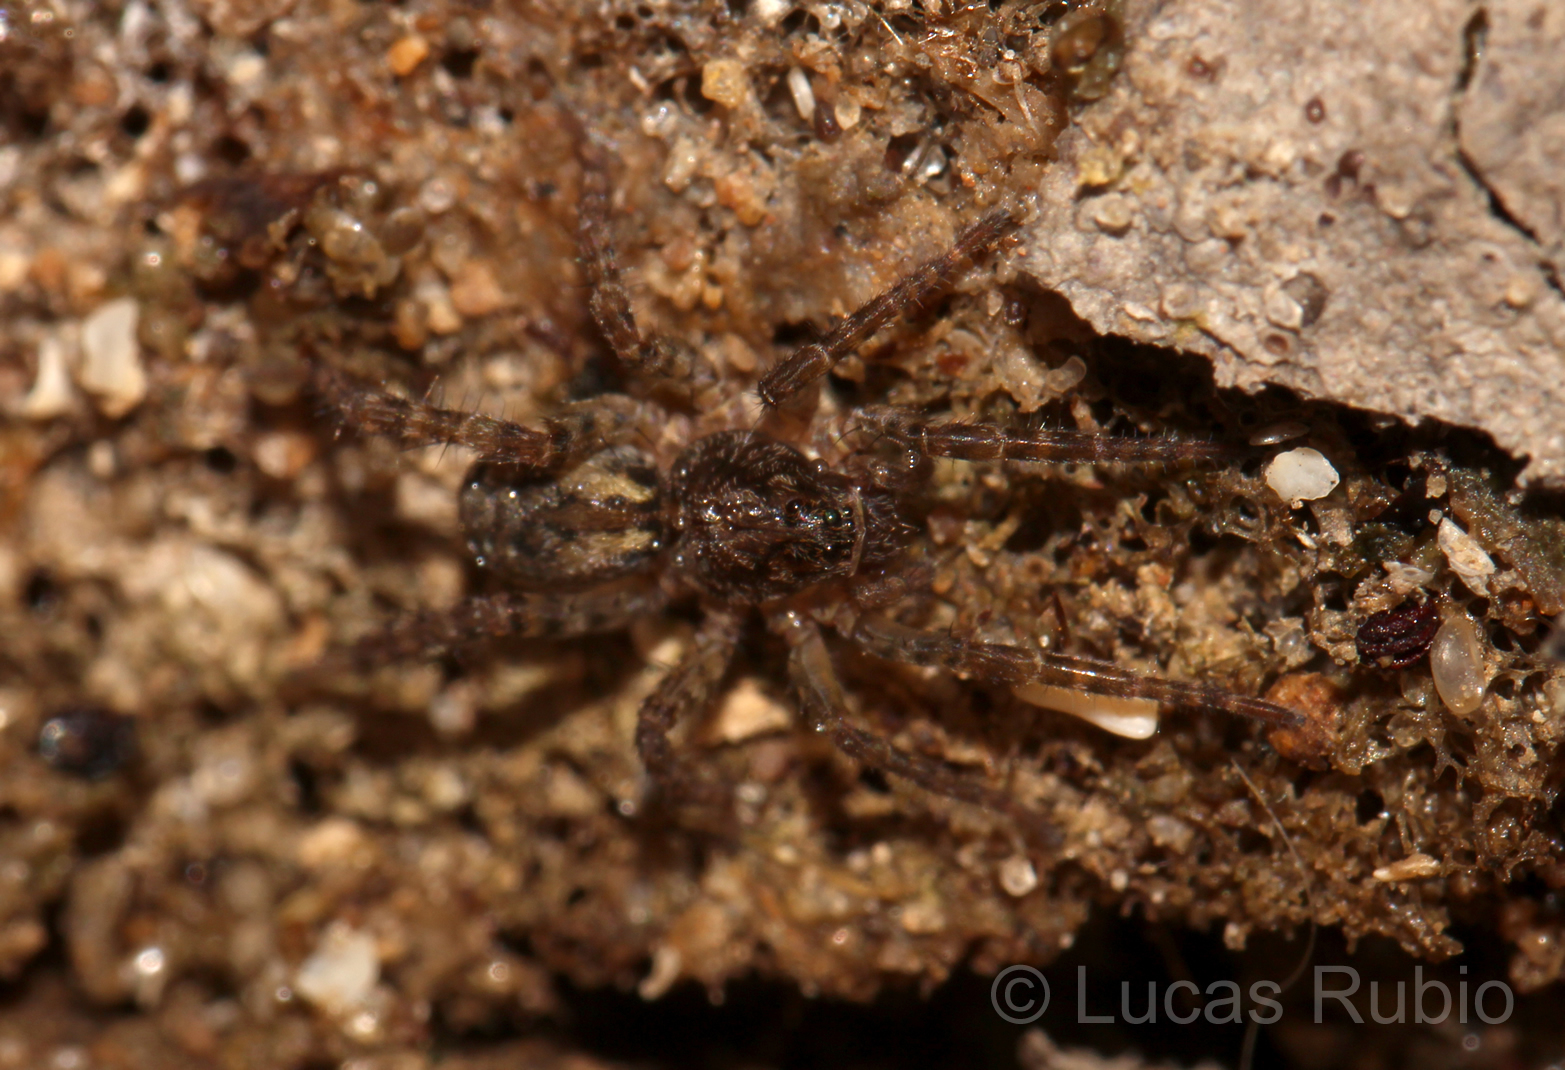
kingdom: Animalia
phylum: Arthropoda
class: Arachnida
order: Araneae
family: Lycosidae
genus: Paratrochosina
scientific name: Paratrochosina amica
